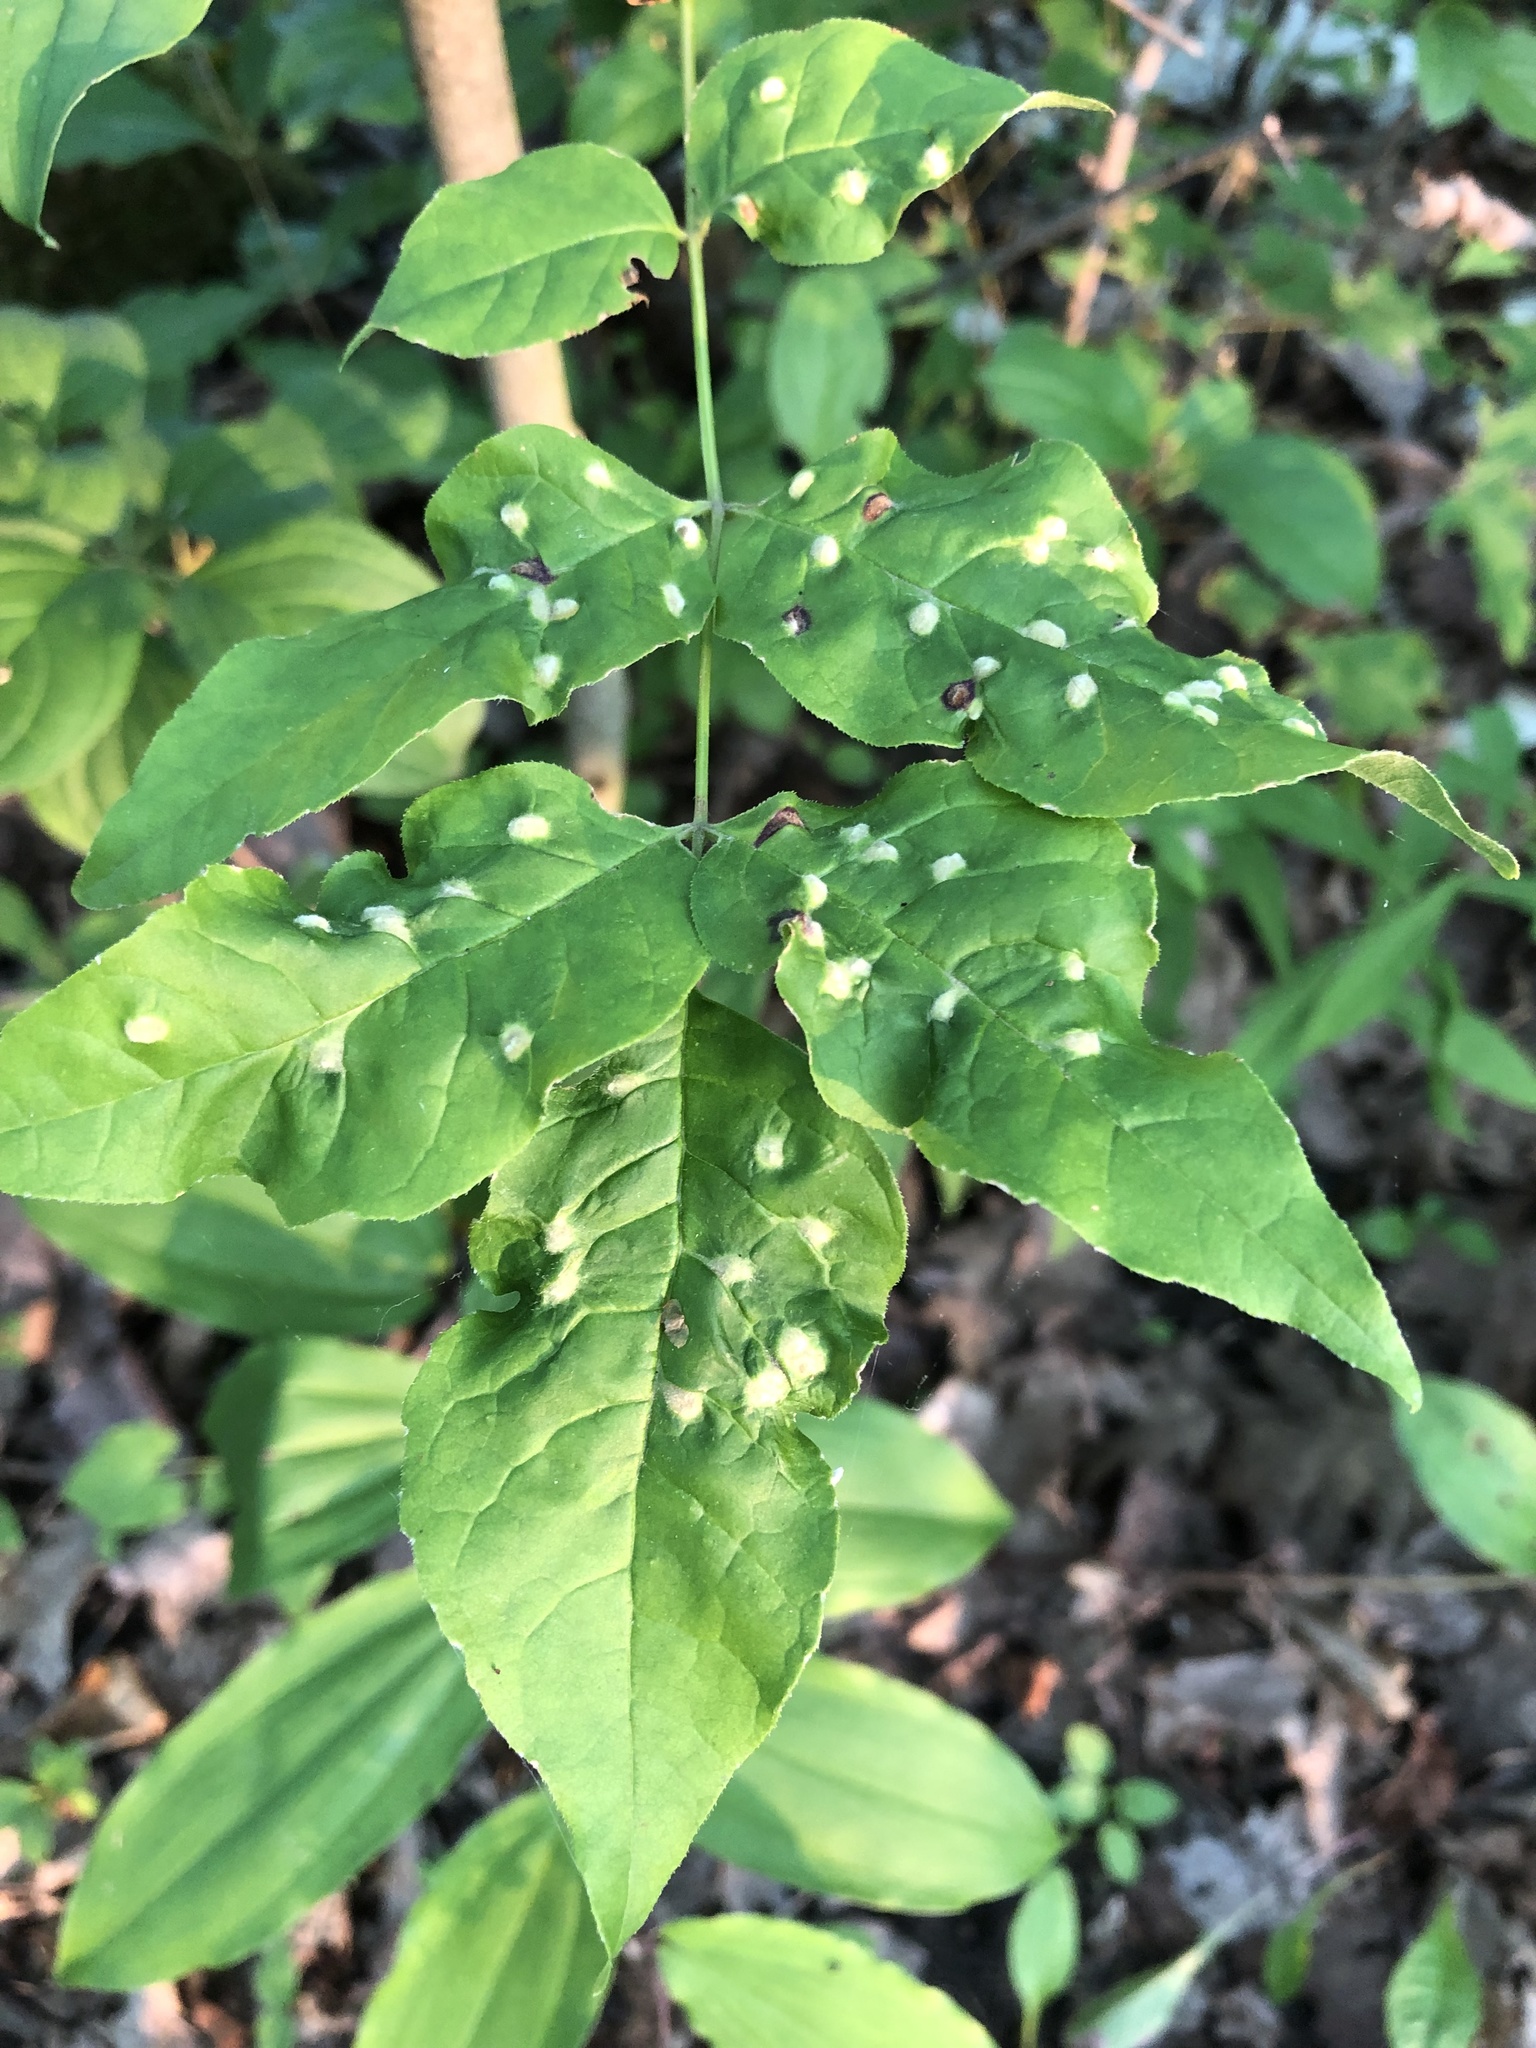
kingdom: Animalia
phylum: Arthropoda
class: Arachnida
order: Trombidiformes
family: Eriophyidae
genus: Aceria
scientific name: Aceria fraxinicola
